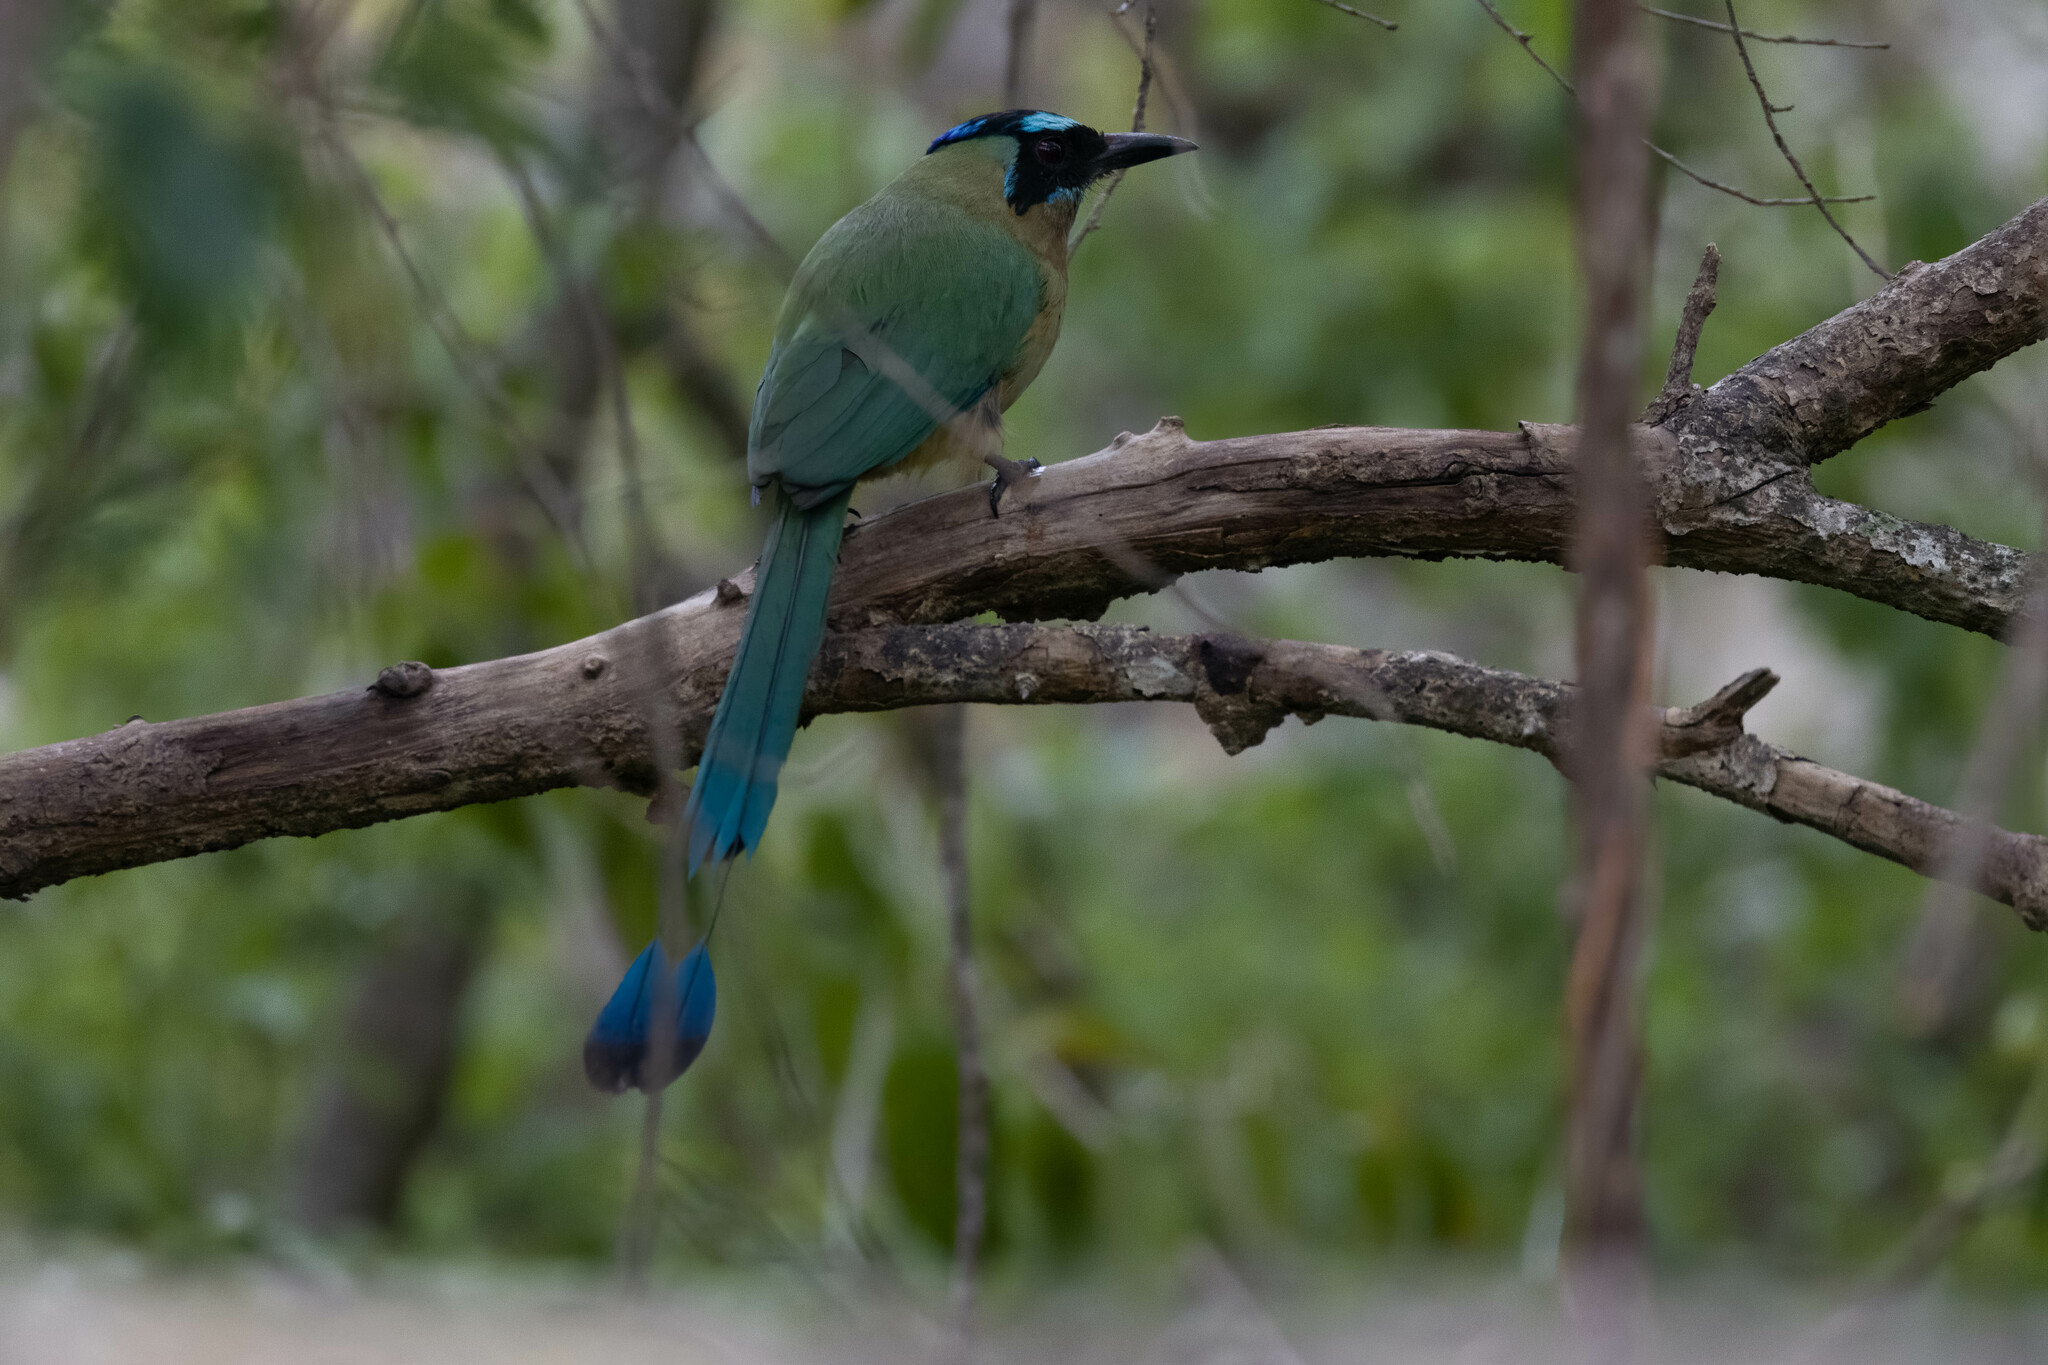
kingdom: Animalia
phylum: Chordata
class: Aves
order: Coraciiformes
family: Momotidae
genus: Momotus
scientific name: Momotus subrufescens
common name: Whooping motmot
